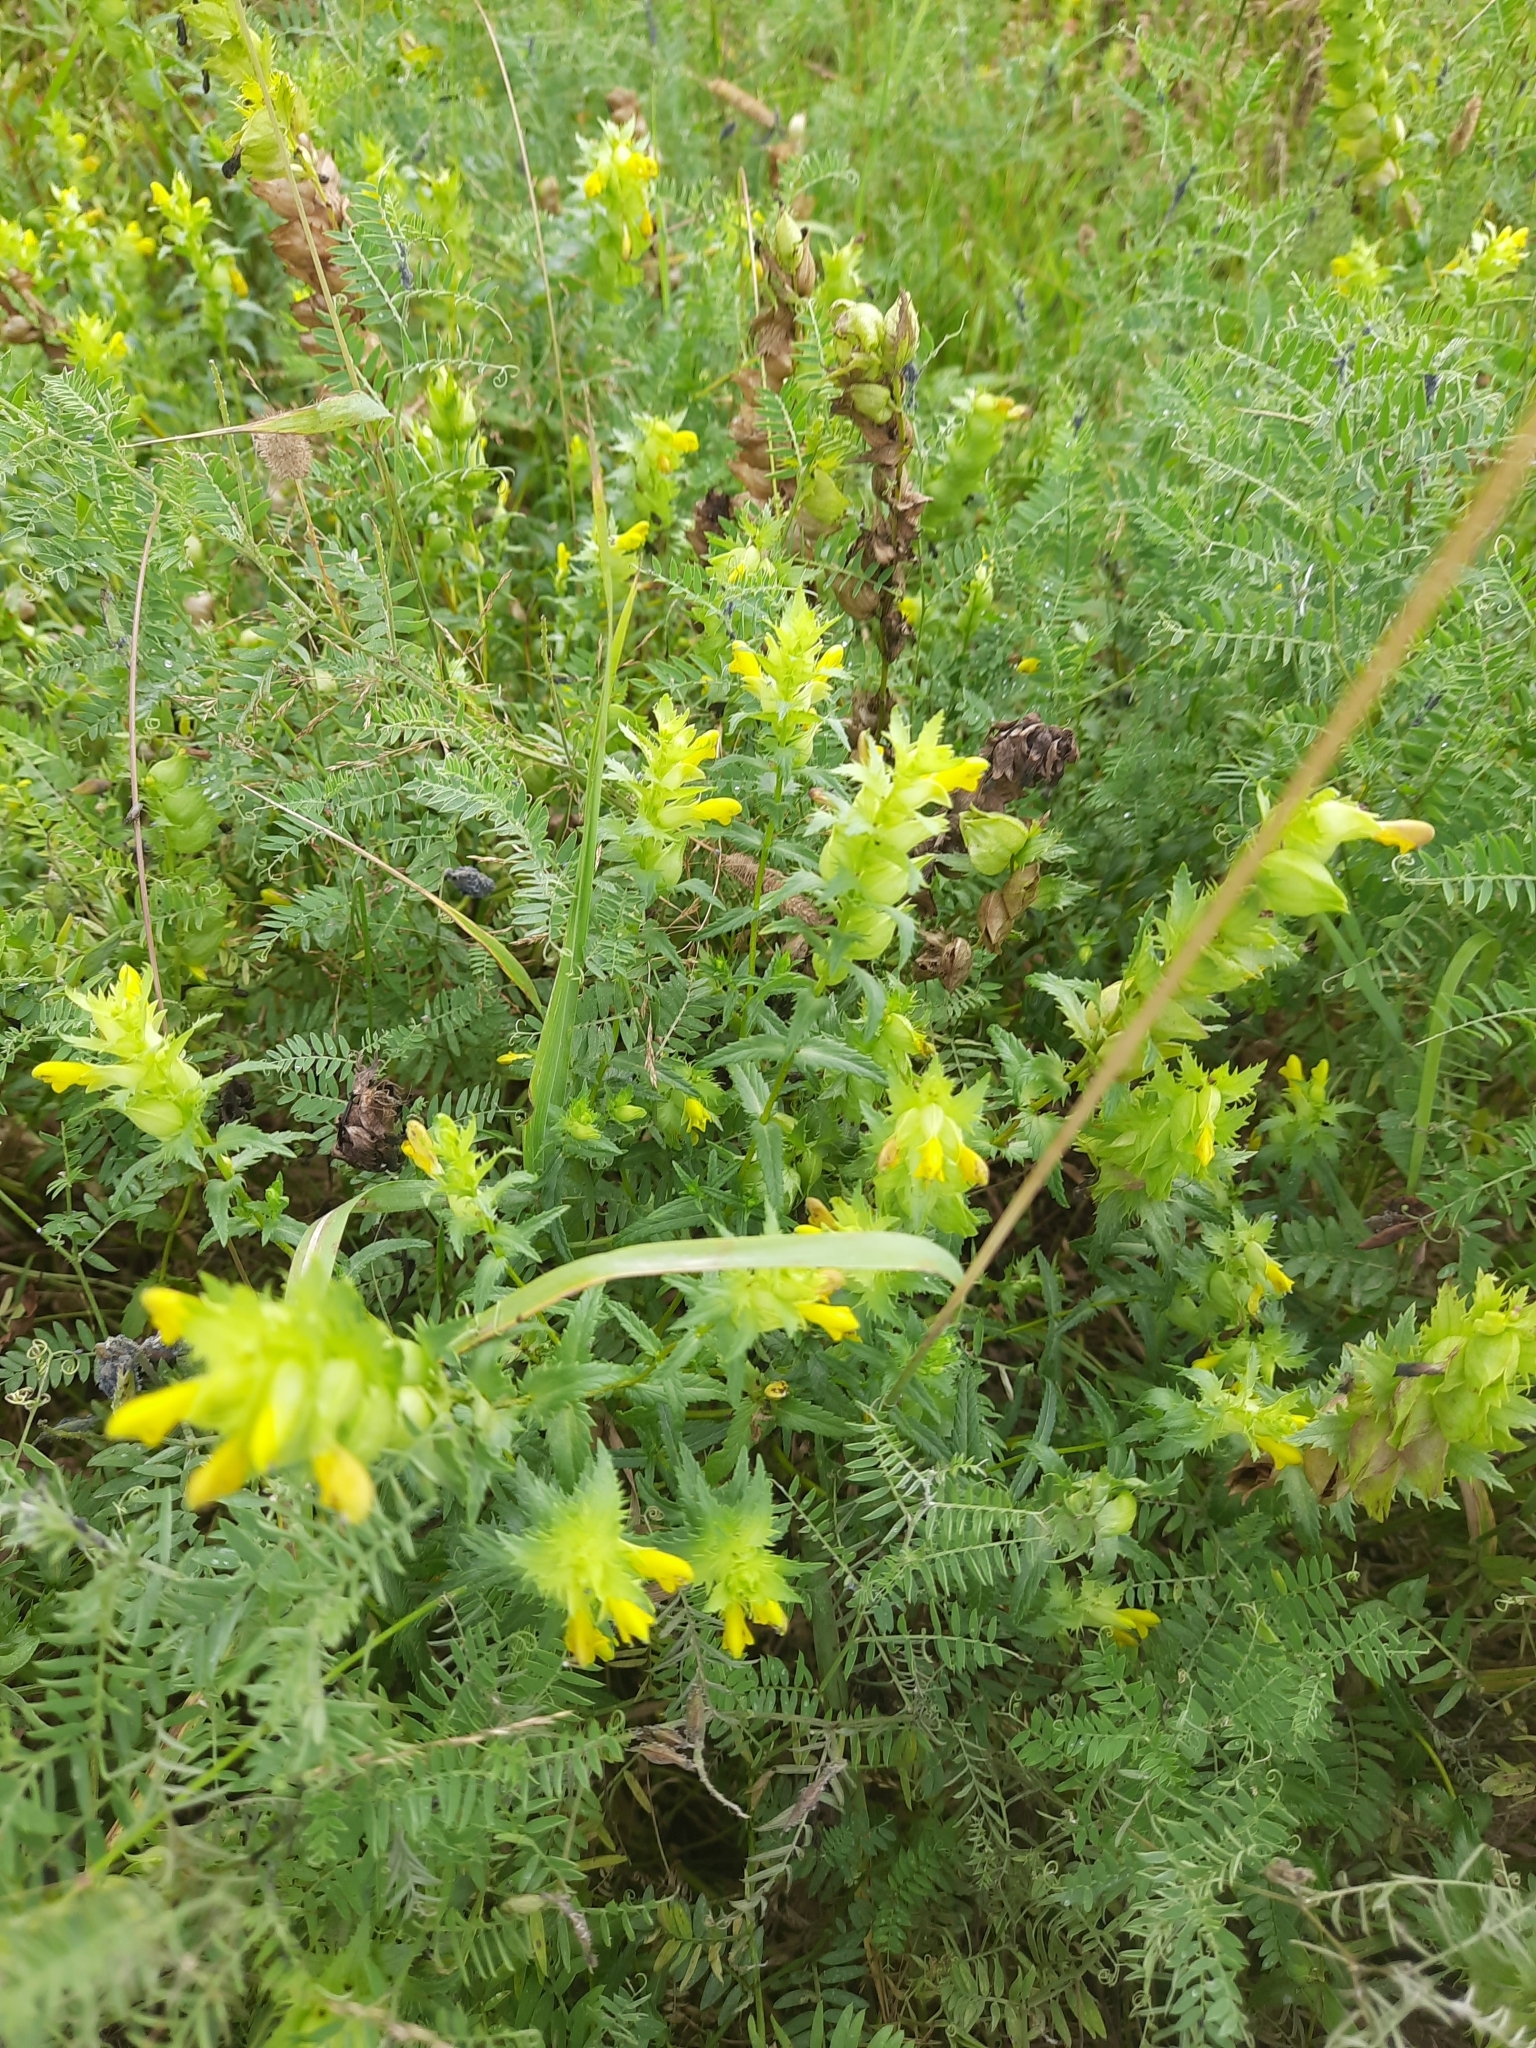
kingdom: Plantae
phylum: Tracheophyta
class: Magnoliopsida
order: Lamiales
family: Orobanchaceae
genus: Rhinanthus
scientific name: Rhinanthus serotinus
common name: Late-flowering yellow rattle
